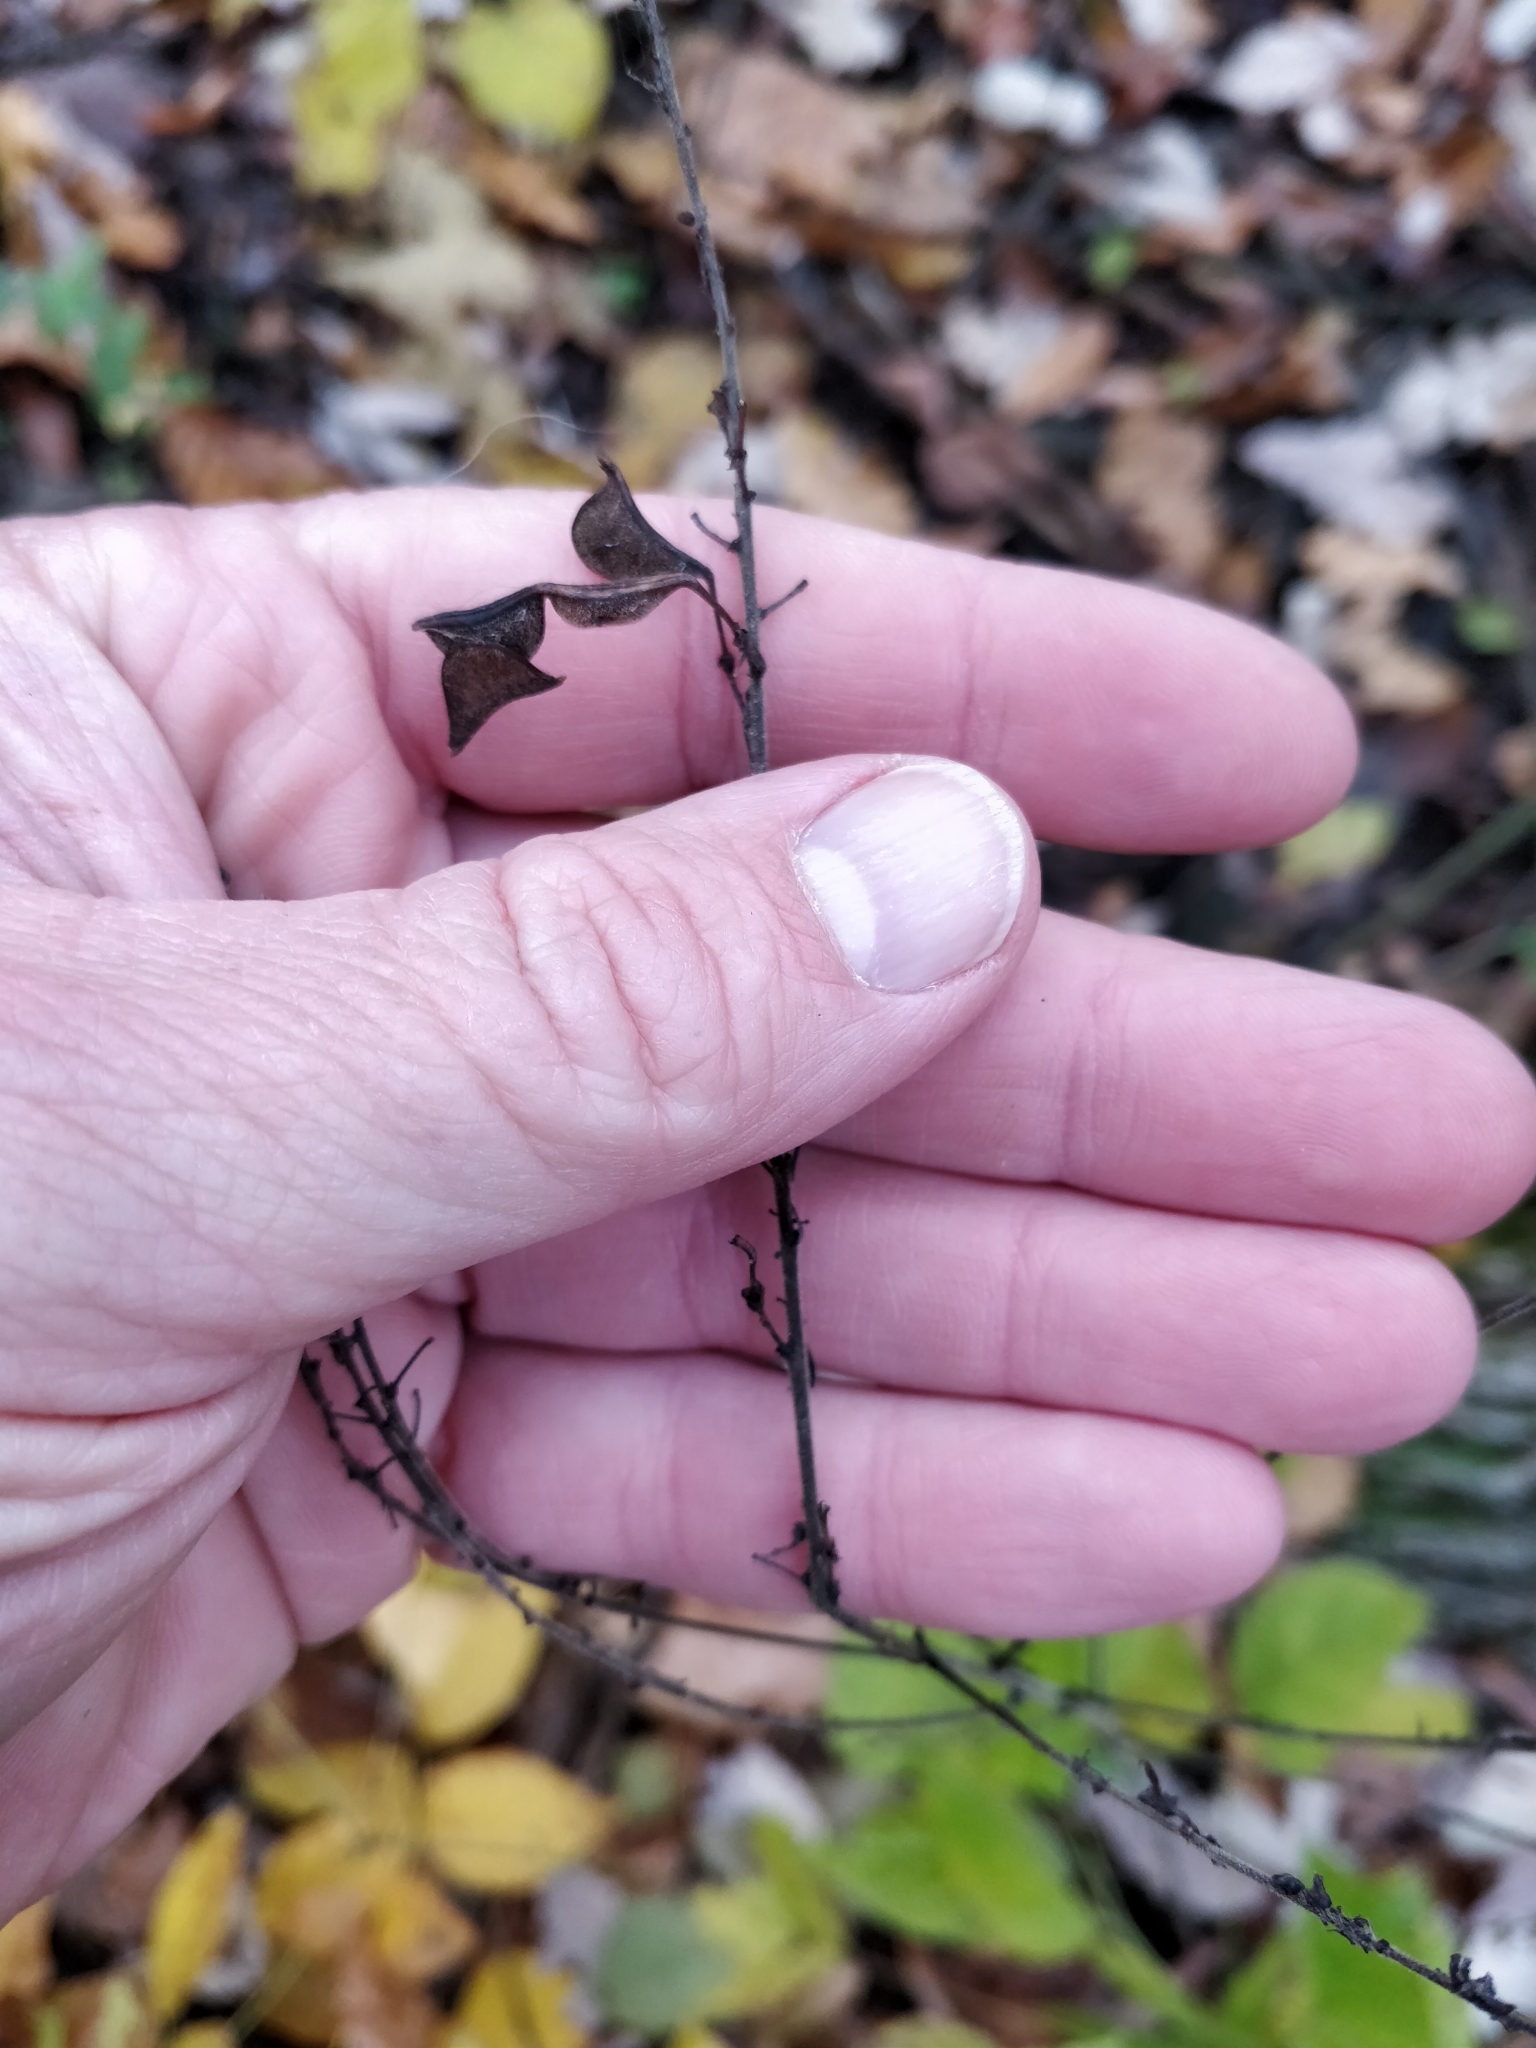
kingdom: Plantae
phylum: Tracheophyta
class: Magnoliopsida
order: Fabales
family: Fabaceae
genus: Hylodesmum
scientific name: Hylodesmum glutinosum
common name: Clustered-leaved tick-trefoil
